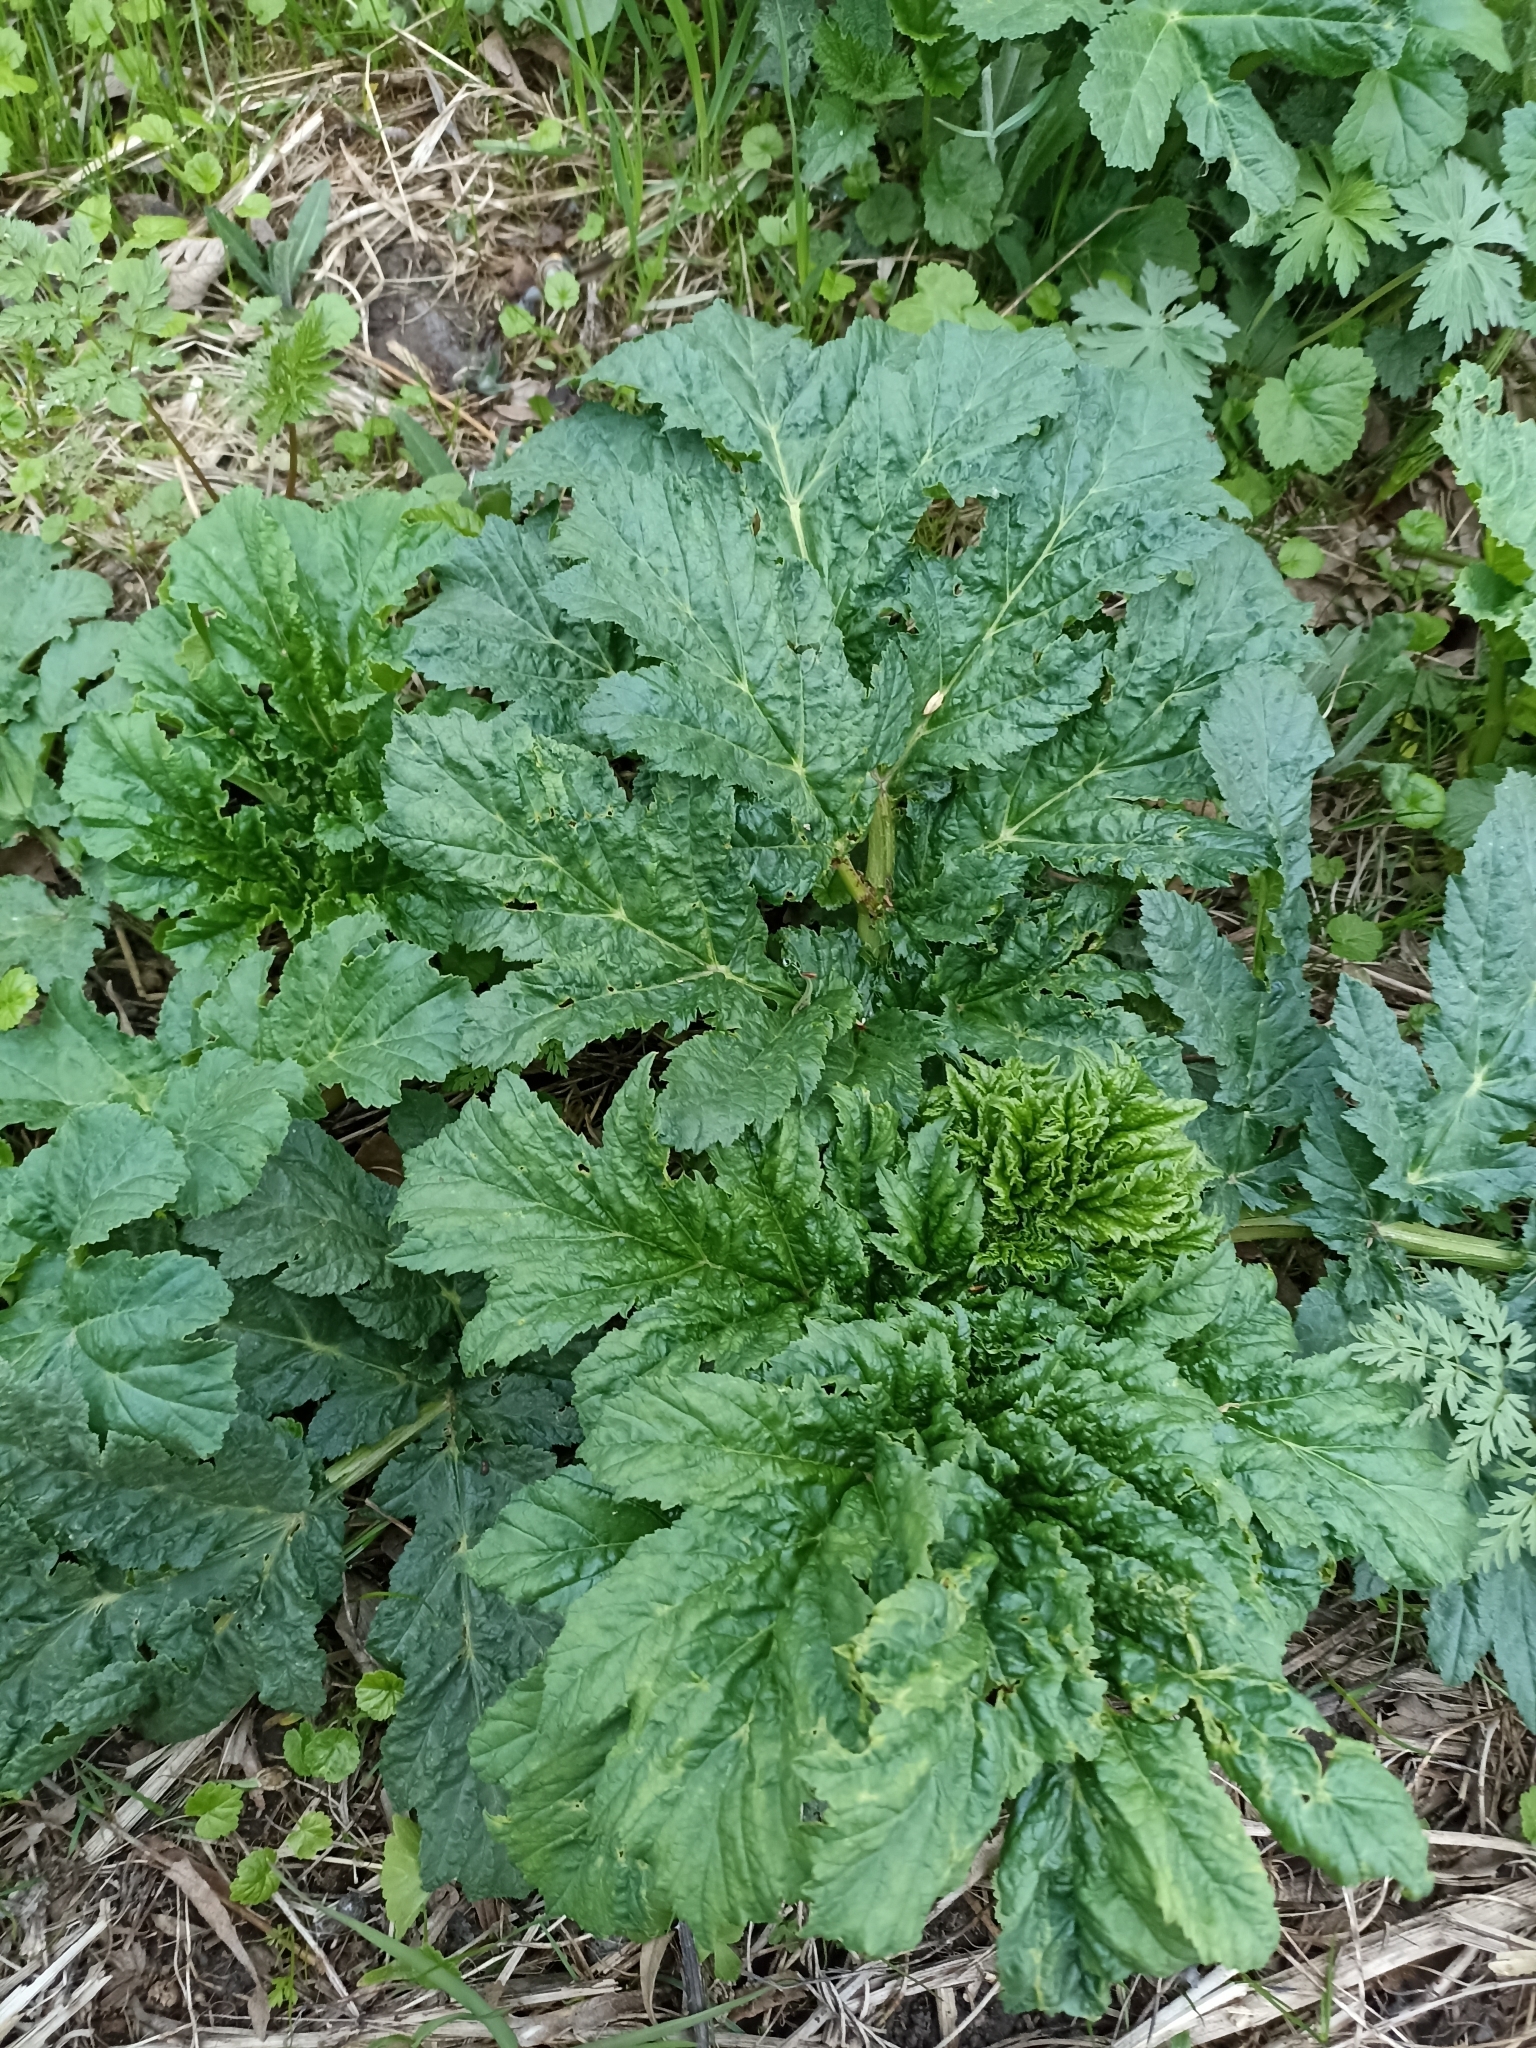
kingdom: Plantae
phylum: Tracheophyta
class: Magnoliopsida
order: Apiales
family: Apiaceae
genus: Heracleum
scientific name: Heracleum sosnowskyi
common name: Sosnowsky's hogweed
